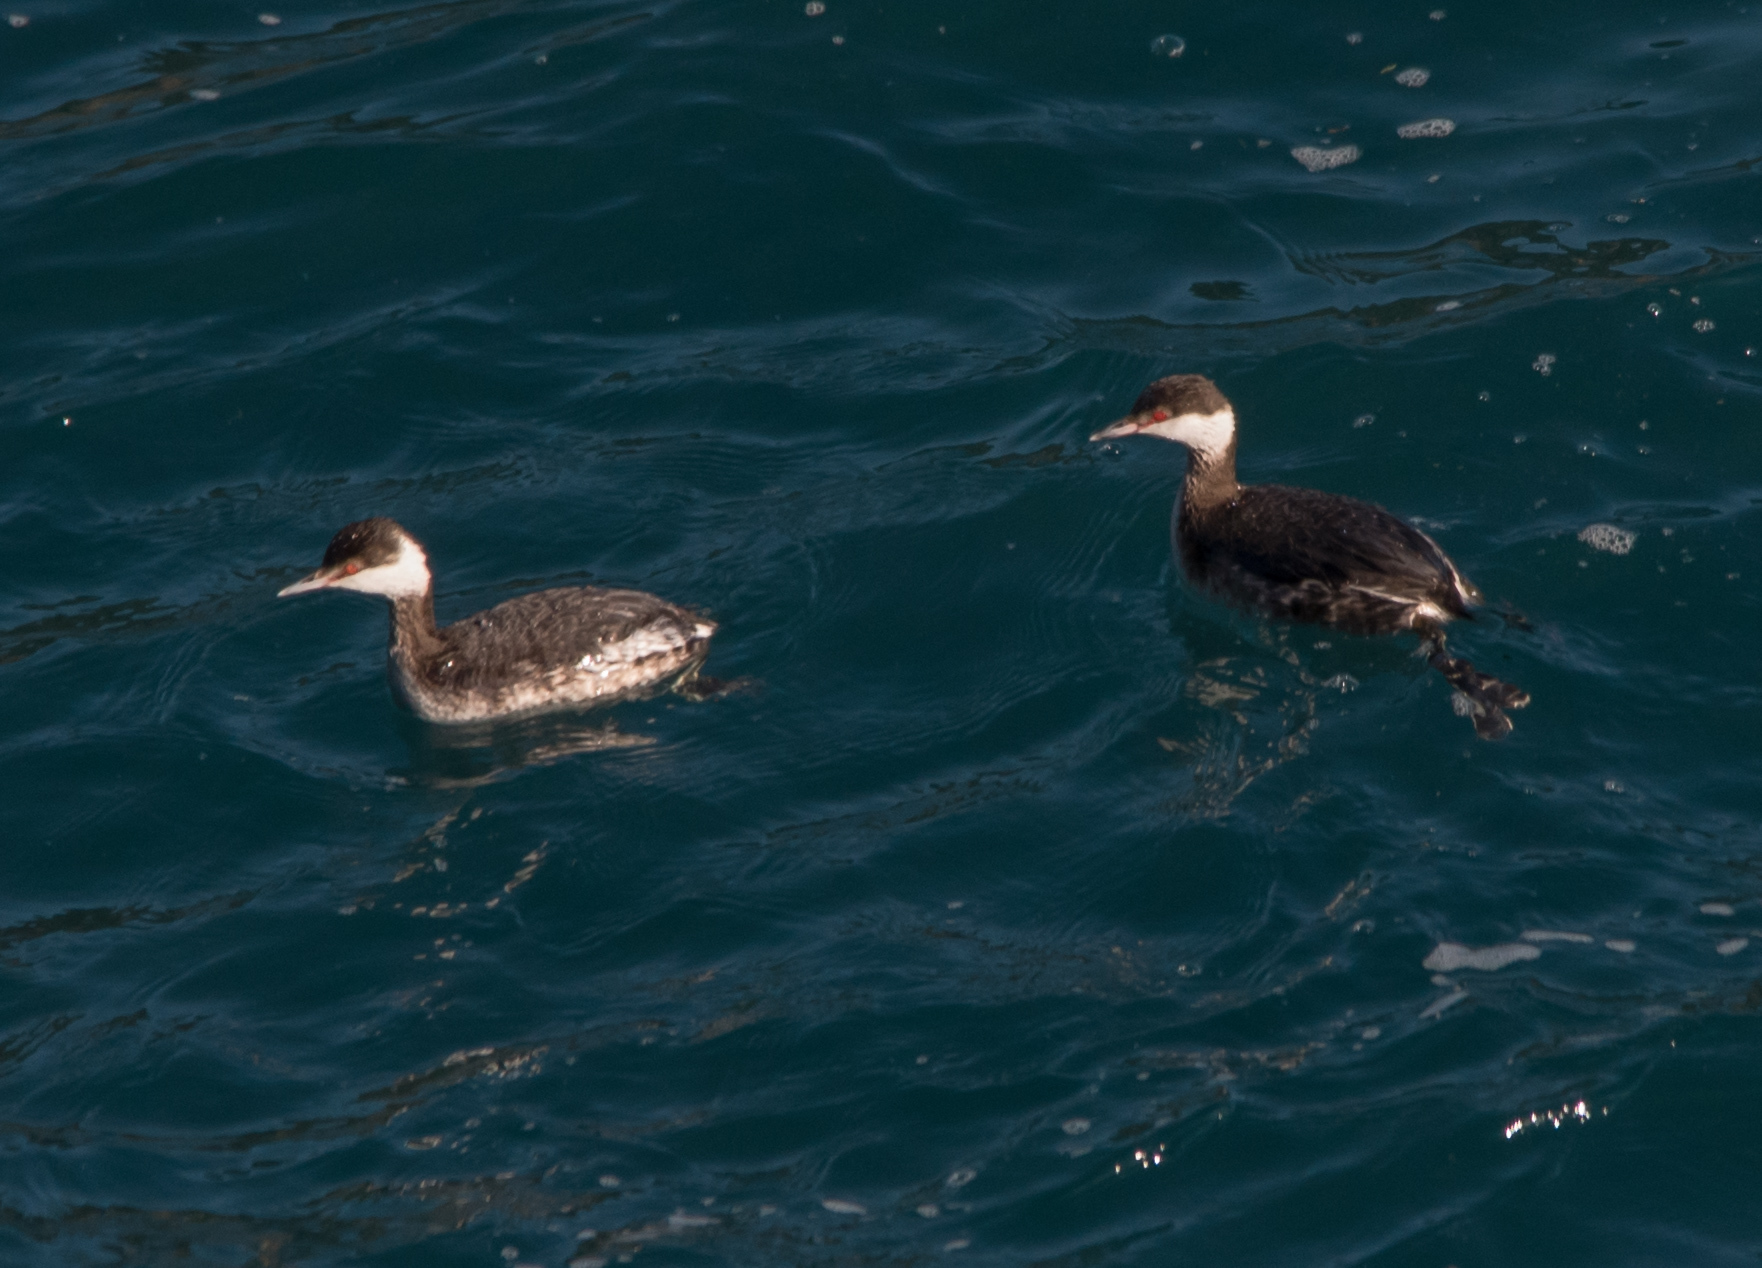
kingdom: Animalia
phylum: Chordata
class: Aves
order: Podicipediformes
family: Podicipedidae
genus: Podiceps
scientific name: Podiceps auritus
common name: Horned grebe
